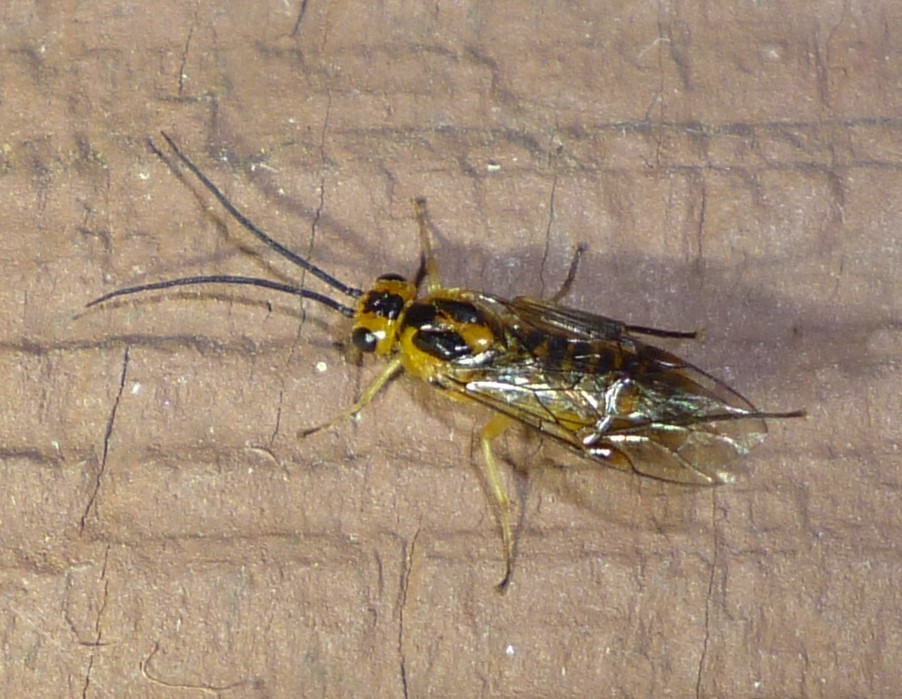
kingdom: Animalia
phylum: Arthropoda
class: Insecta
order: Hymenoptera
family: Tenthredinidae
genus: Euura
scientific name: Euura tibialis
